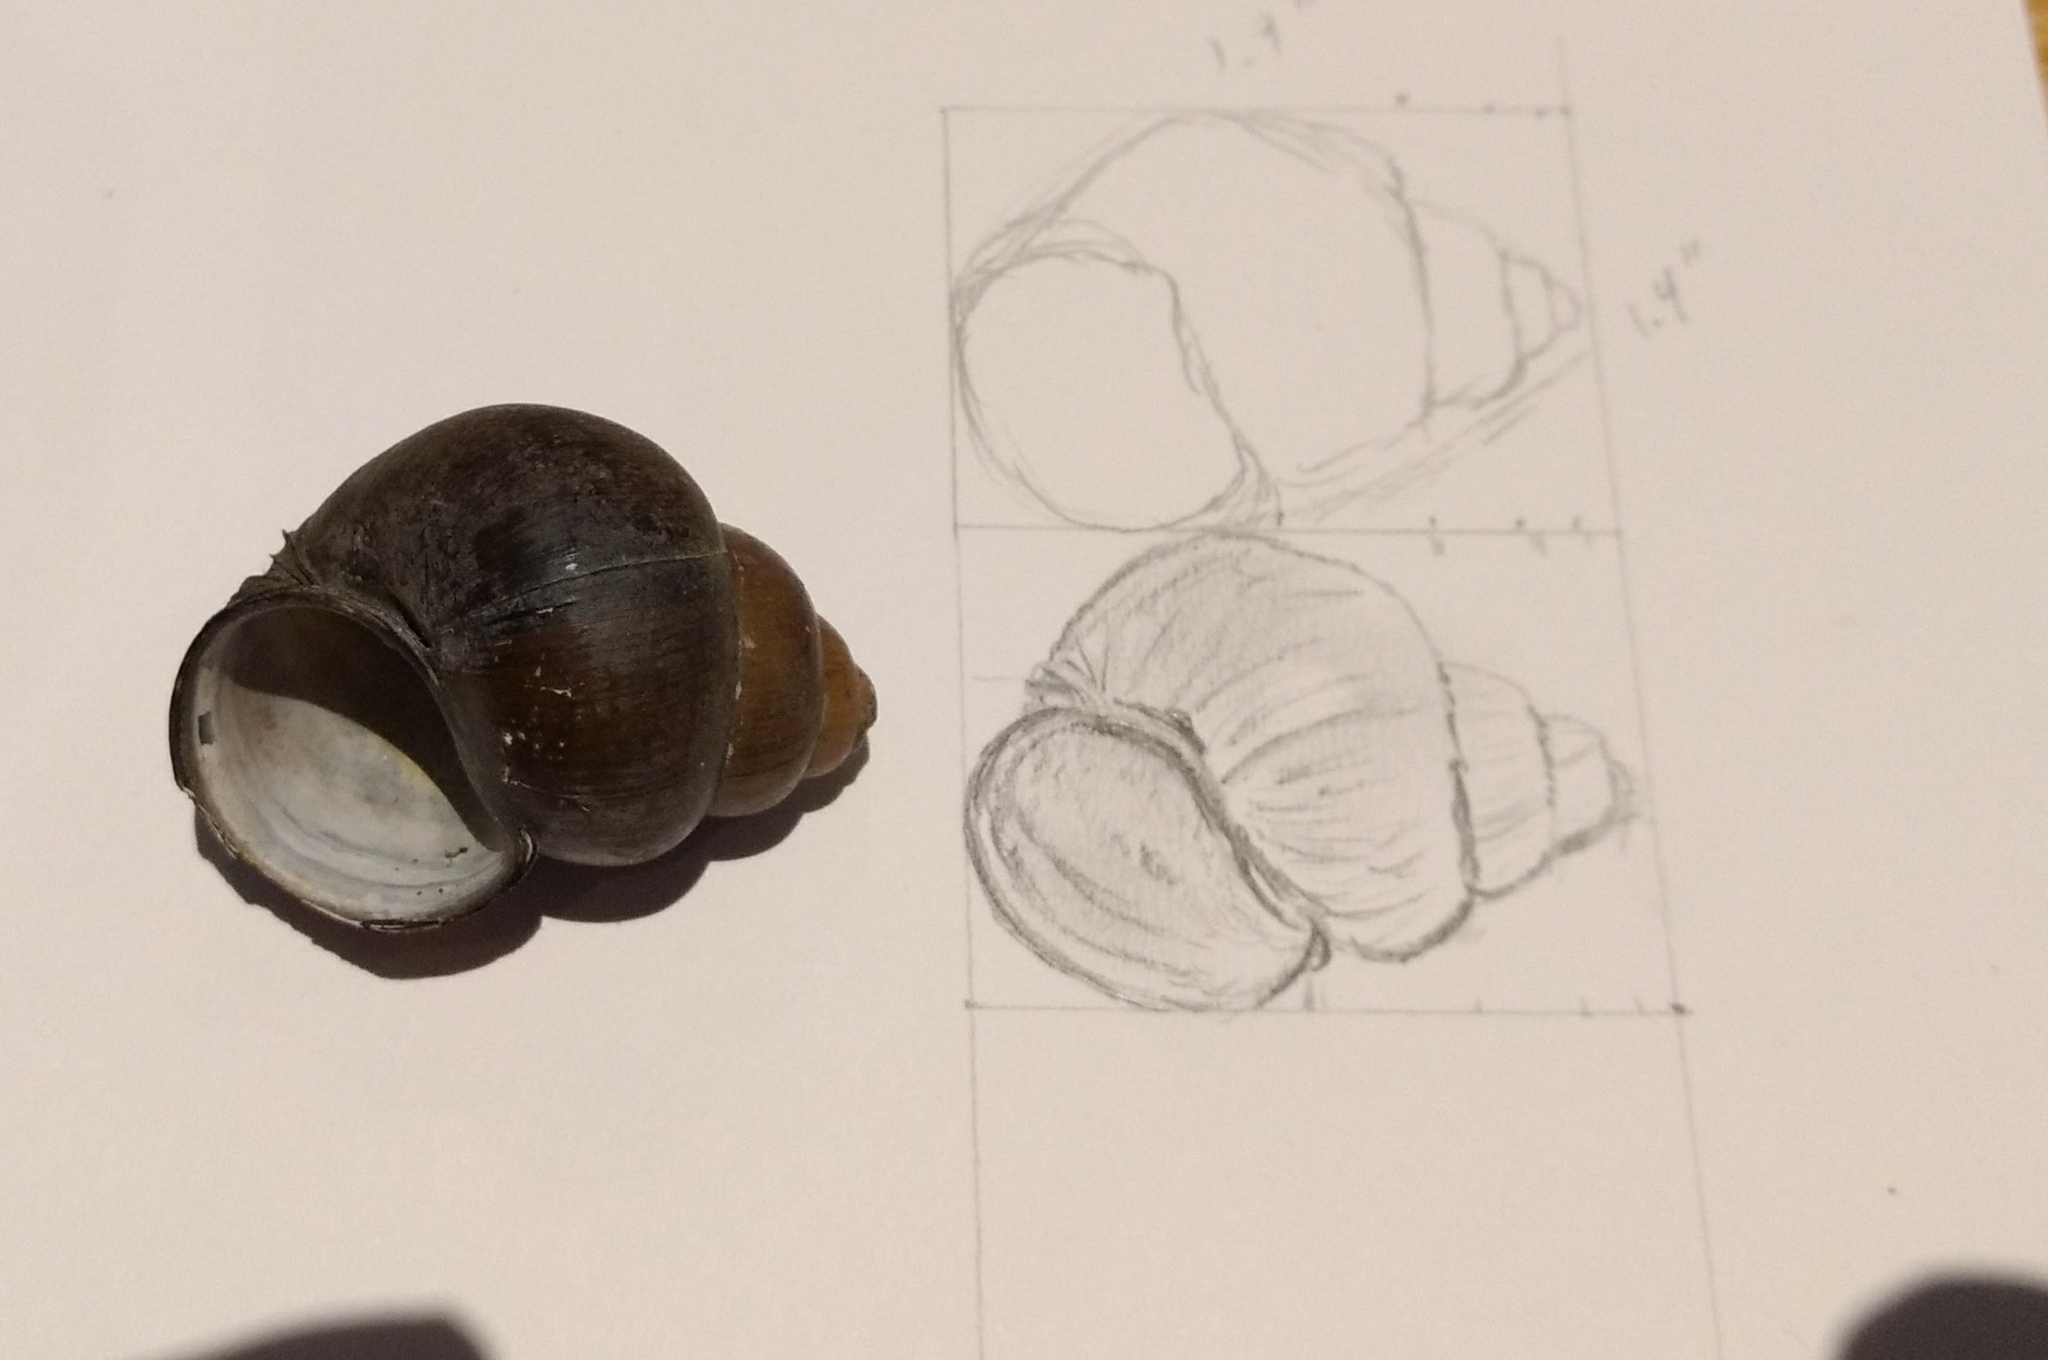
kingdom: Animalia
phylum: Mollusca
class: Gastropoda
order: Architaenioglossa
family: Viviparidae
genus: Cipangopaludina
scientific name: Cipangopaludina chinensis
